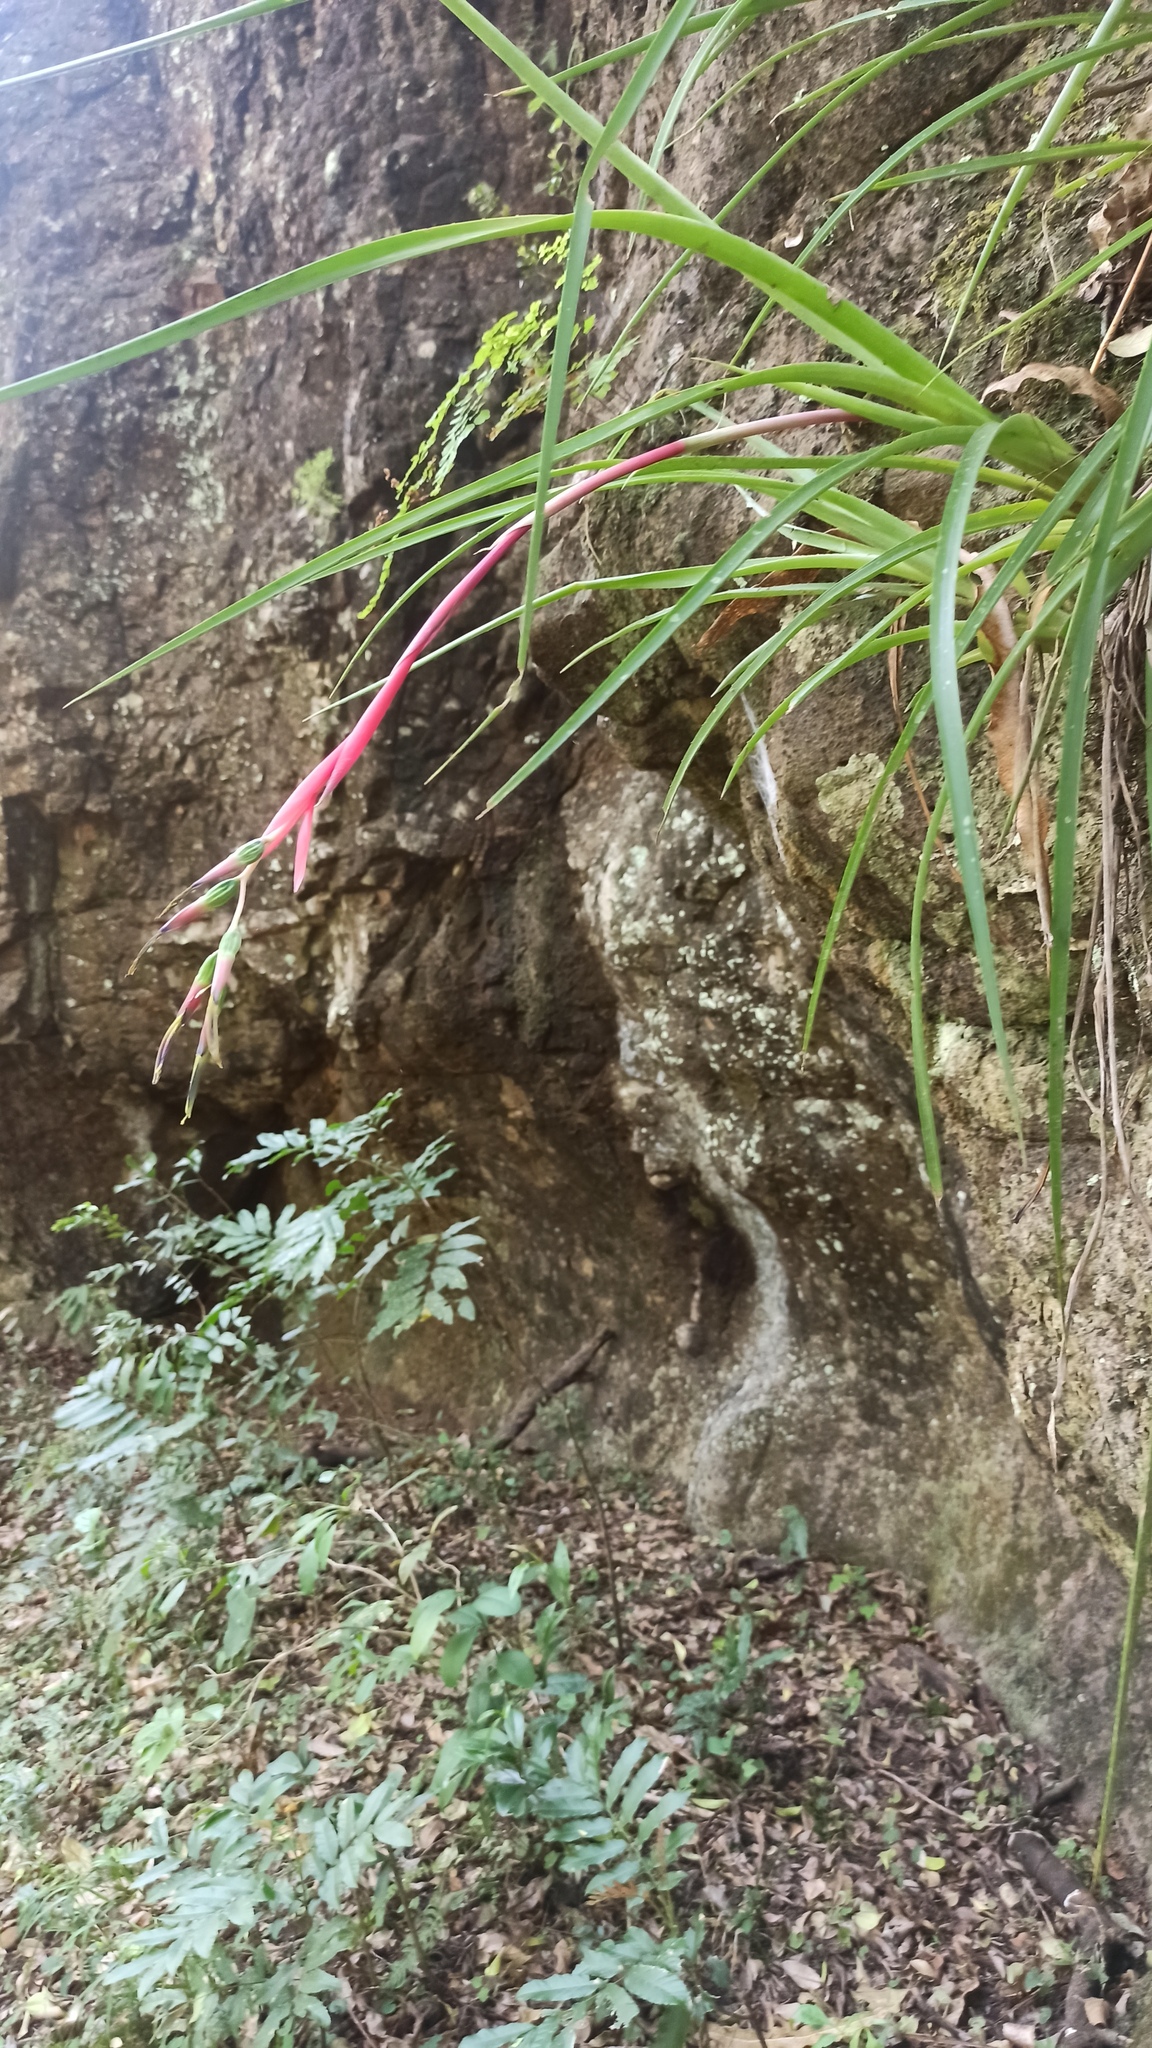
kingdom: Plantae
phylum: Tracheophyta
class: Liliopsida
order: Poales
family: Bromeliaceae
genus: Billbergia
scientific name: Billbergia nutans
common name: Friendship-plant
